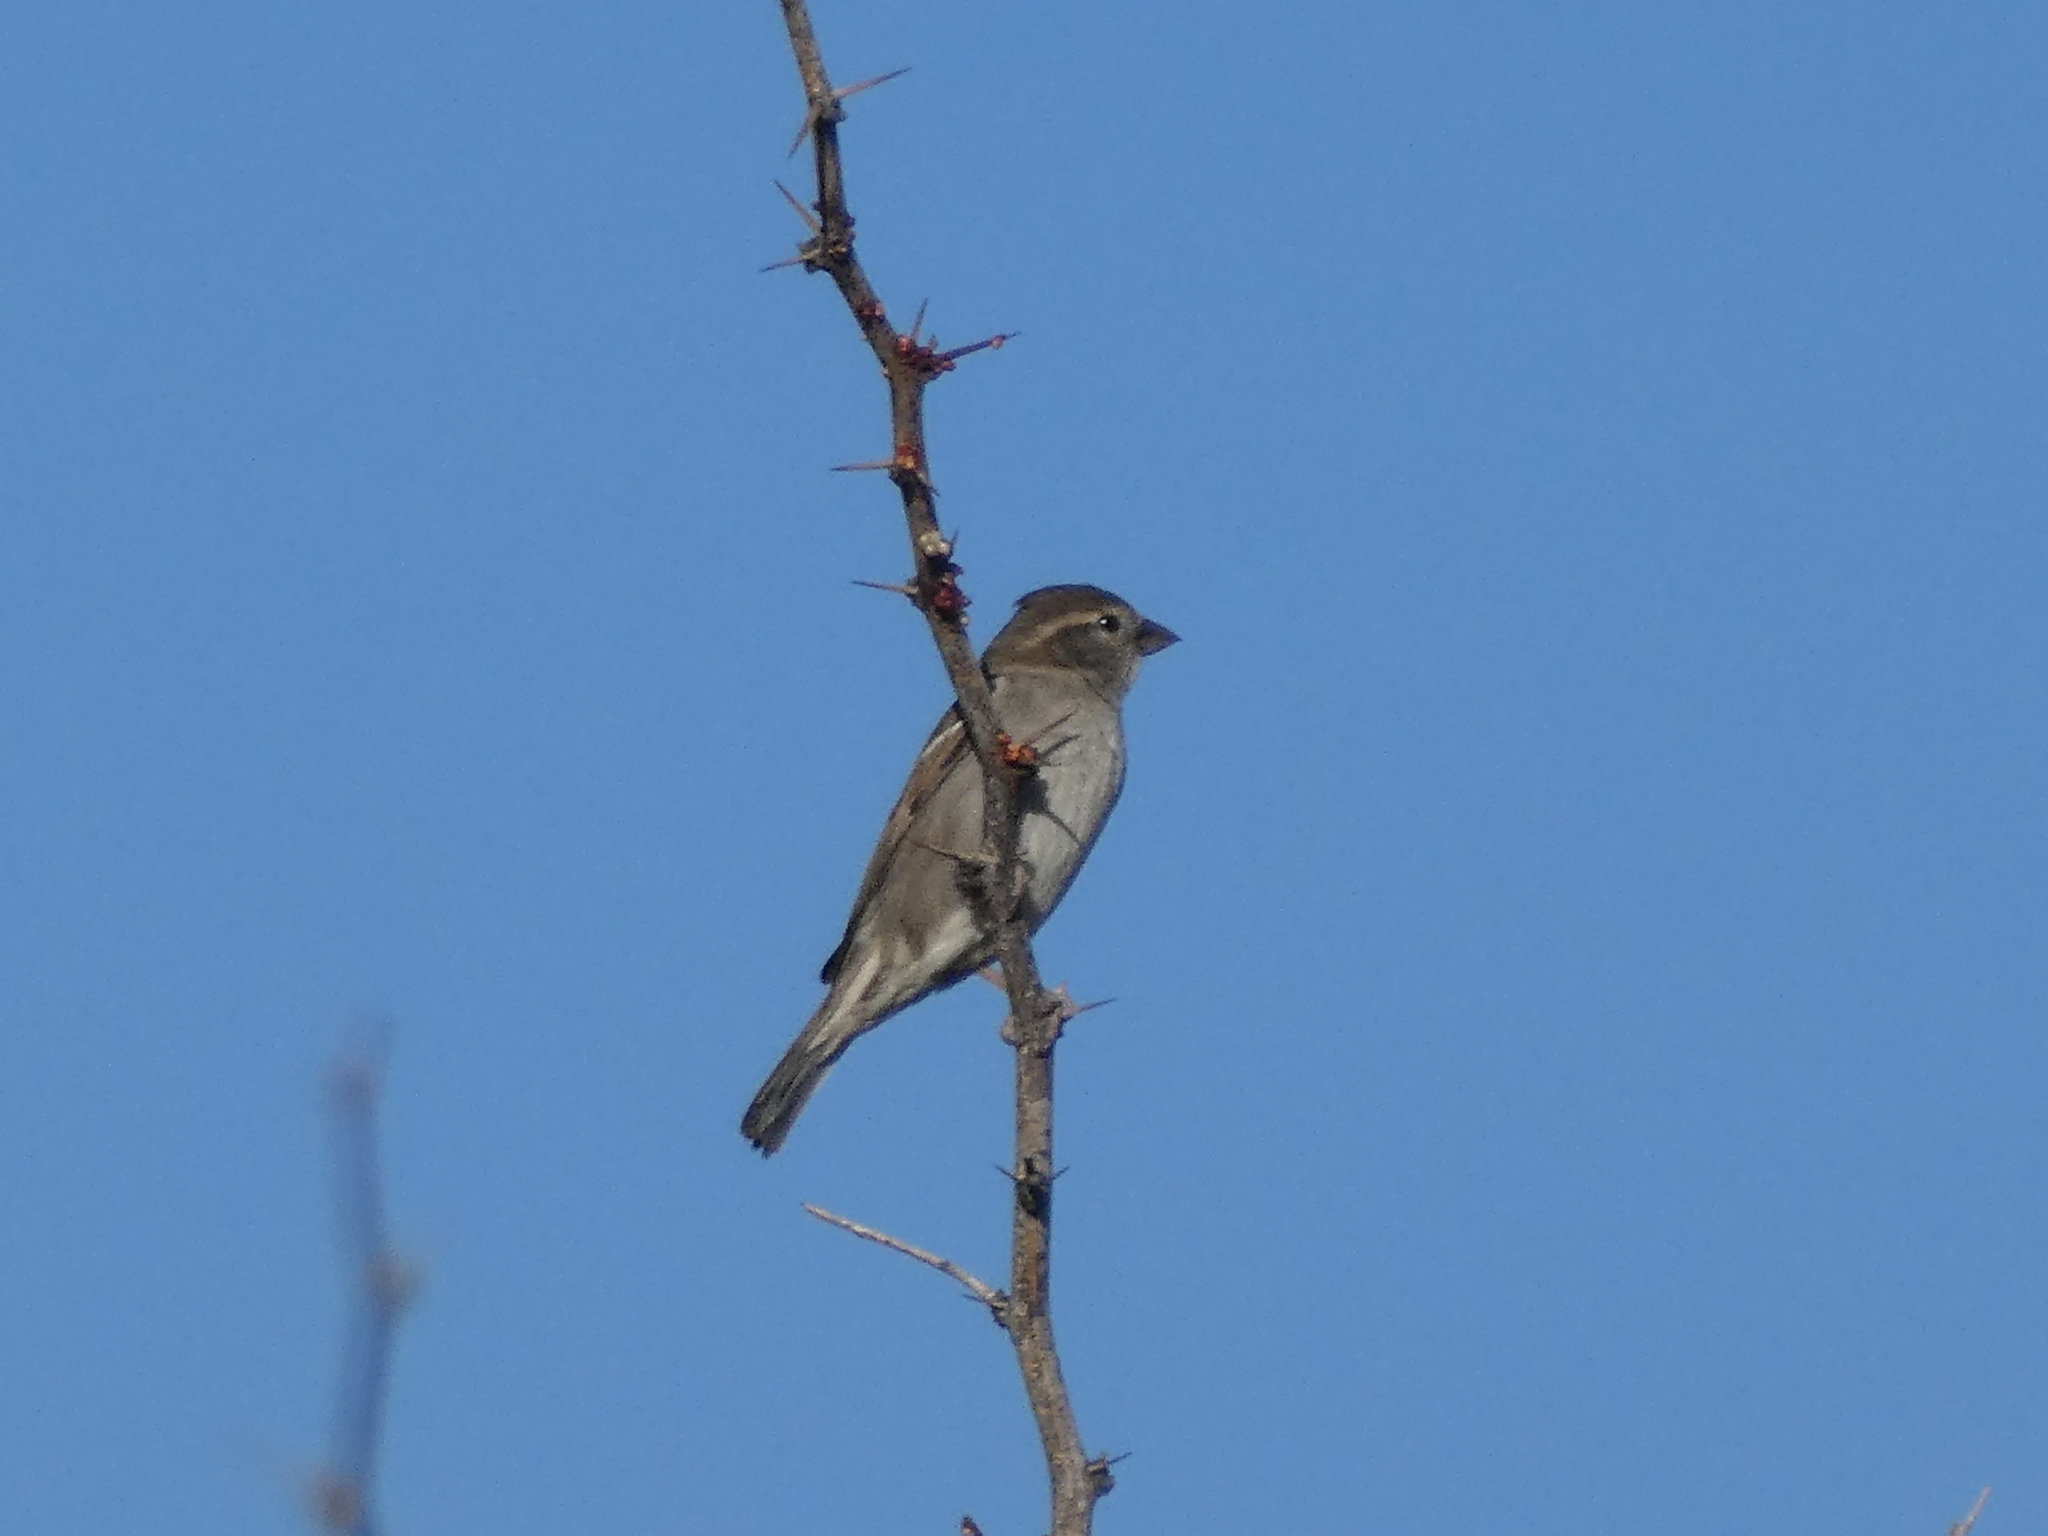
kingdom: Animalia
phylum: Chordata
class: Aves
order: Passeriformes
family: Passeridae
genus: Passer
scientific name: Passer domesticus
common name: House sparrow
